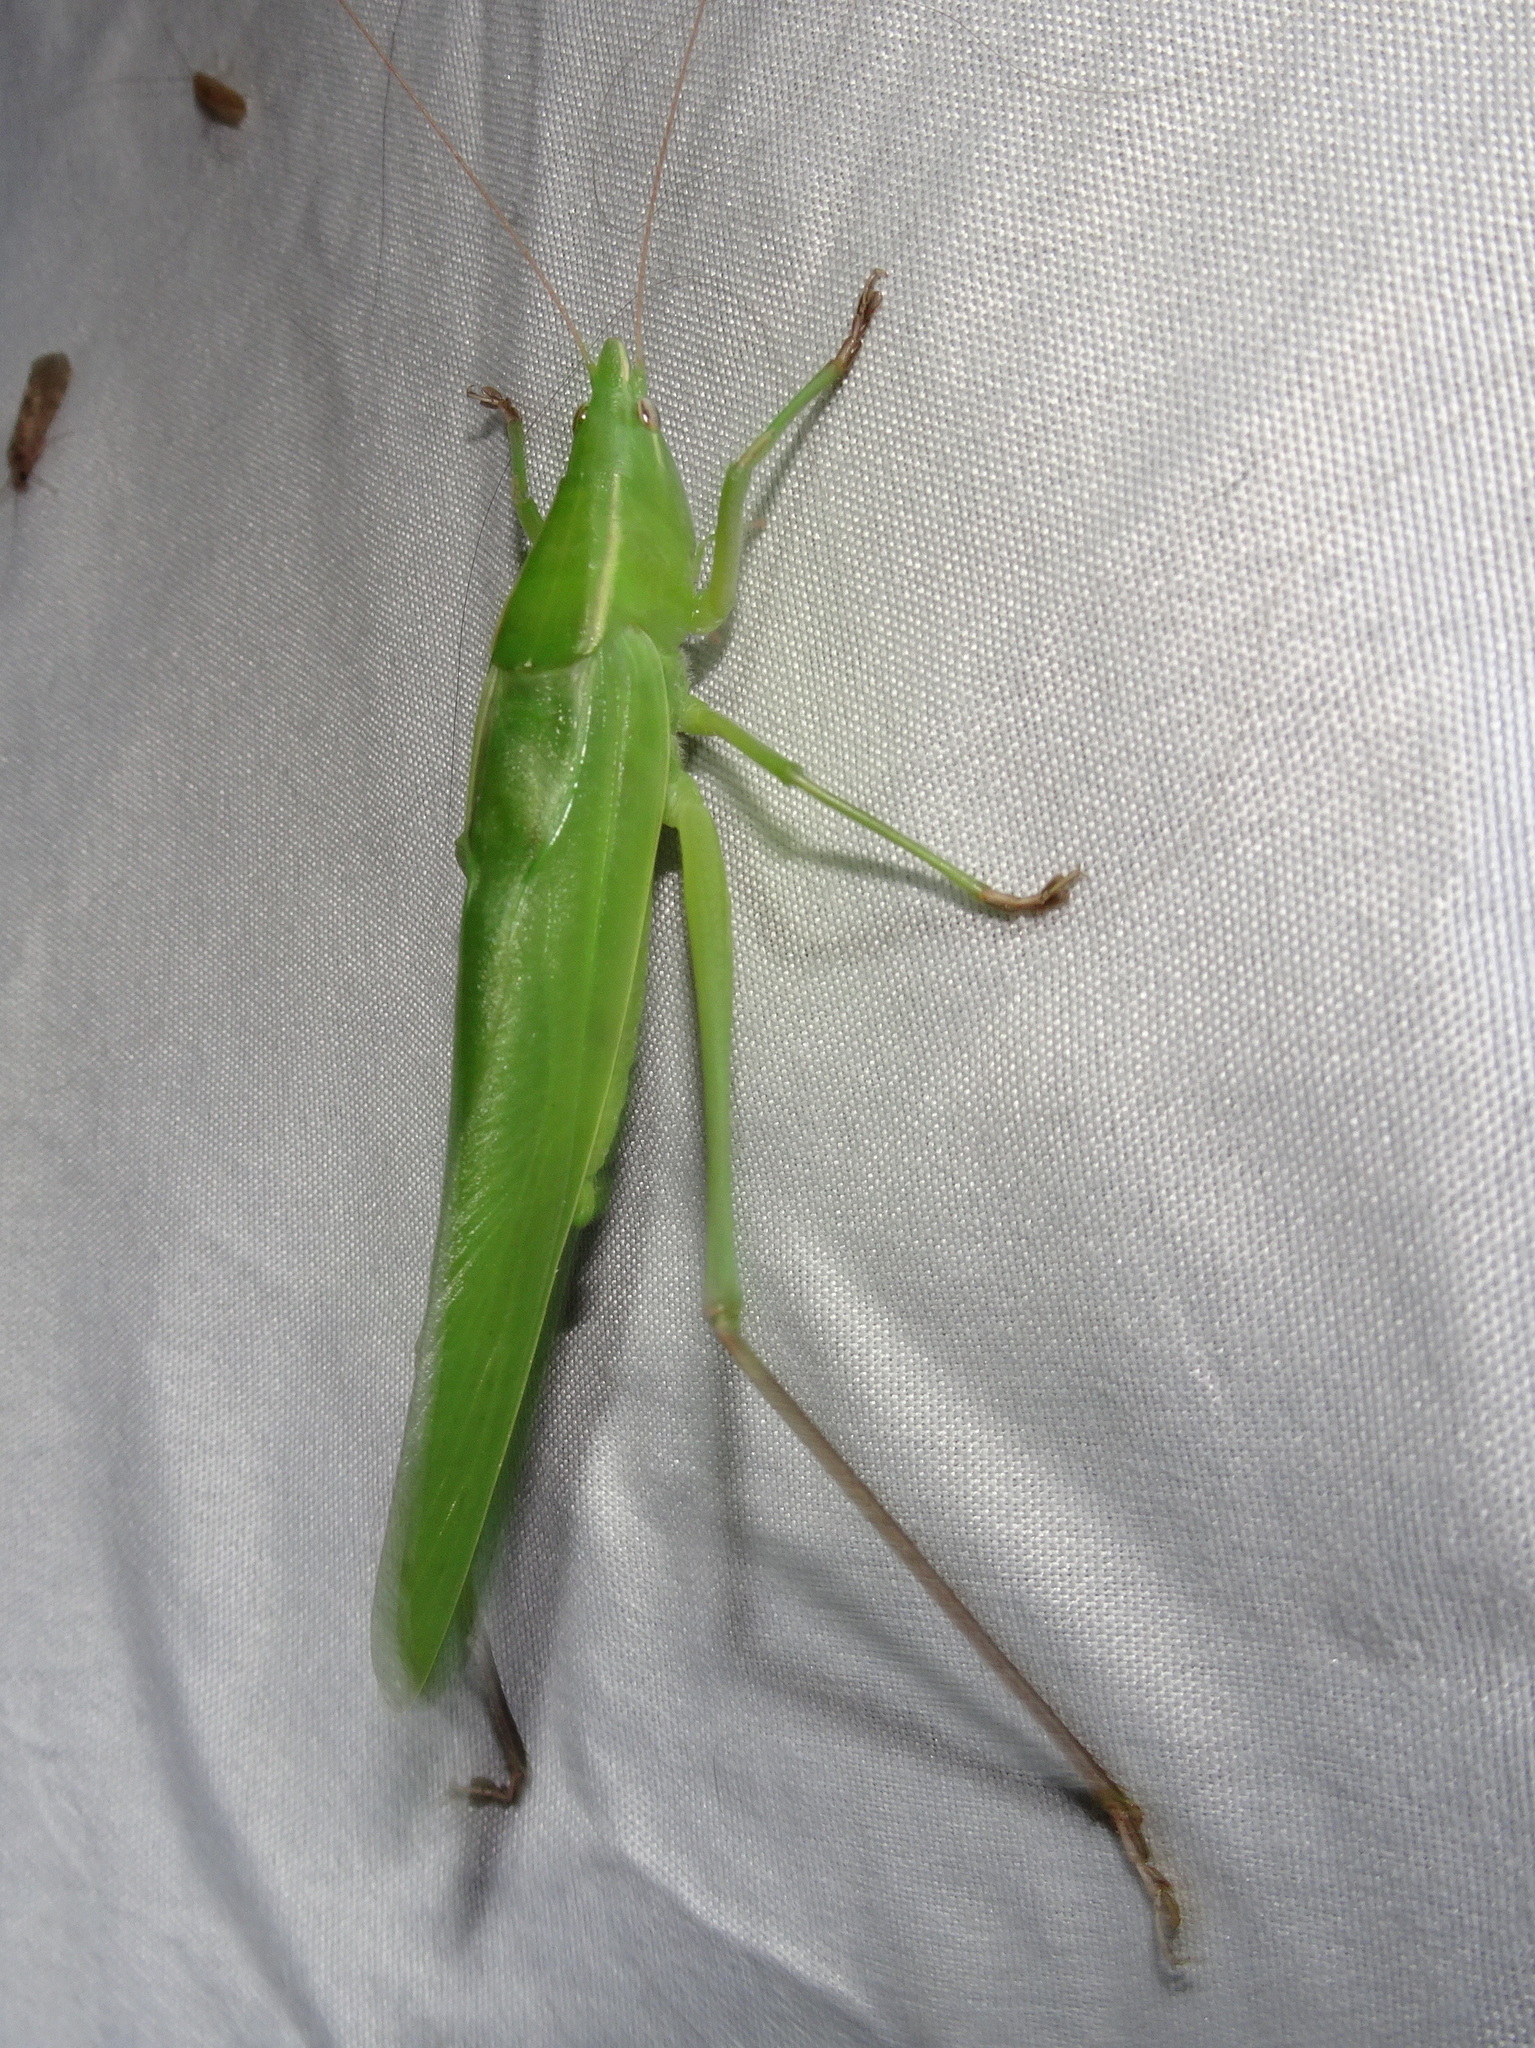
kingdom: Animalia
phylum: Arthropoda
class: Insecta
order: Orthoptera
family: Tettigoniidae
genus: Neoconocephalus
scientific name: Neoconocephalus ensiger
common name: Swordbearer
